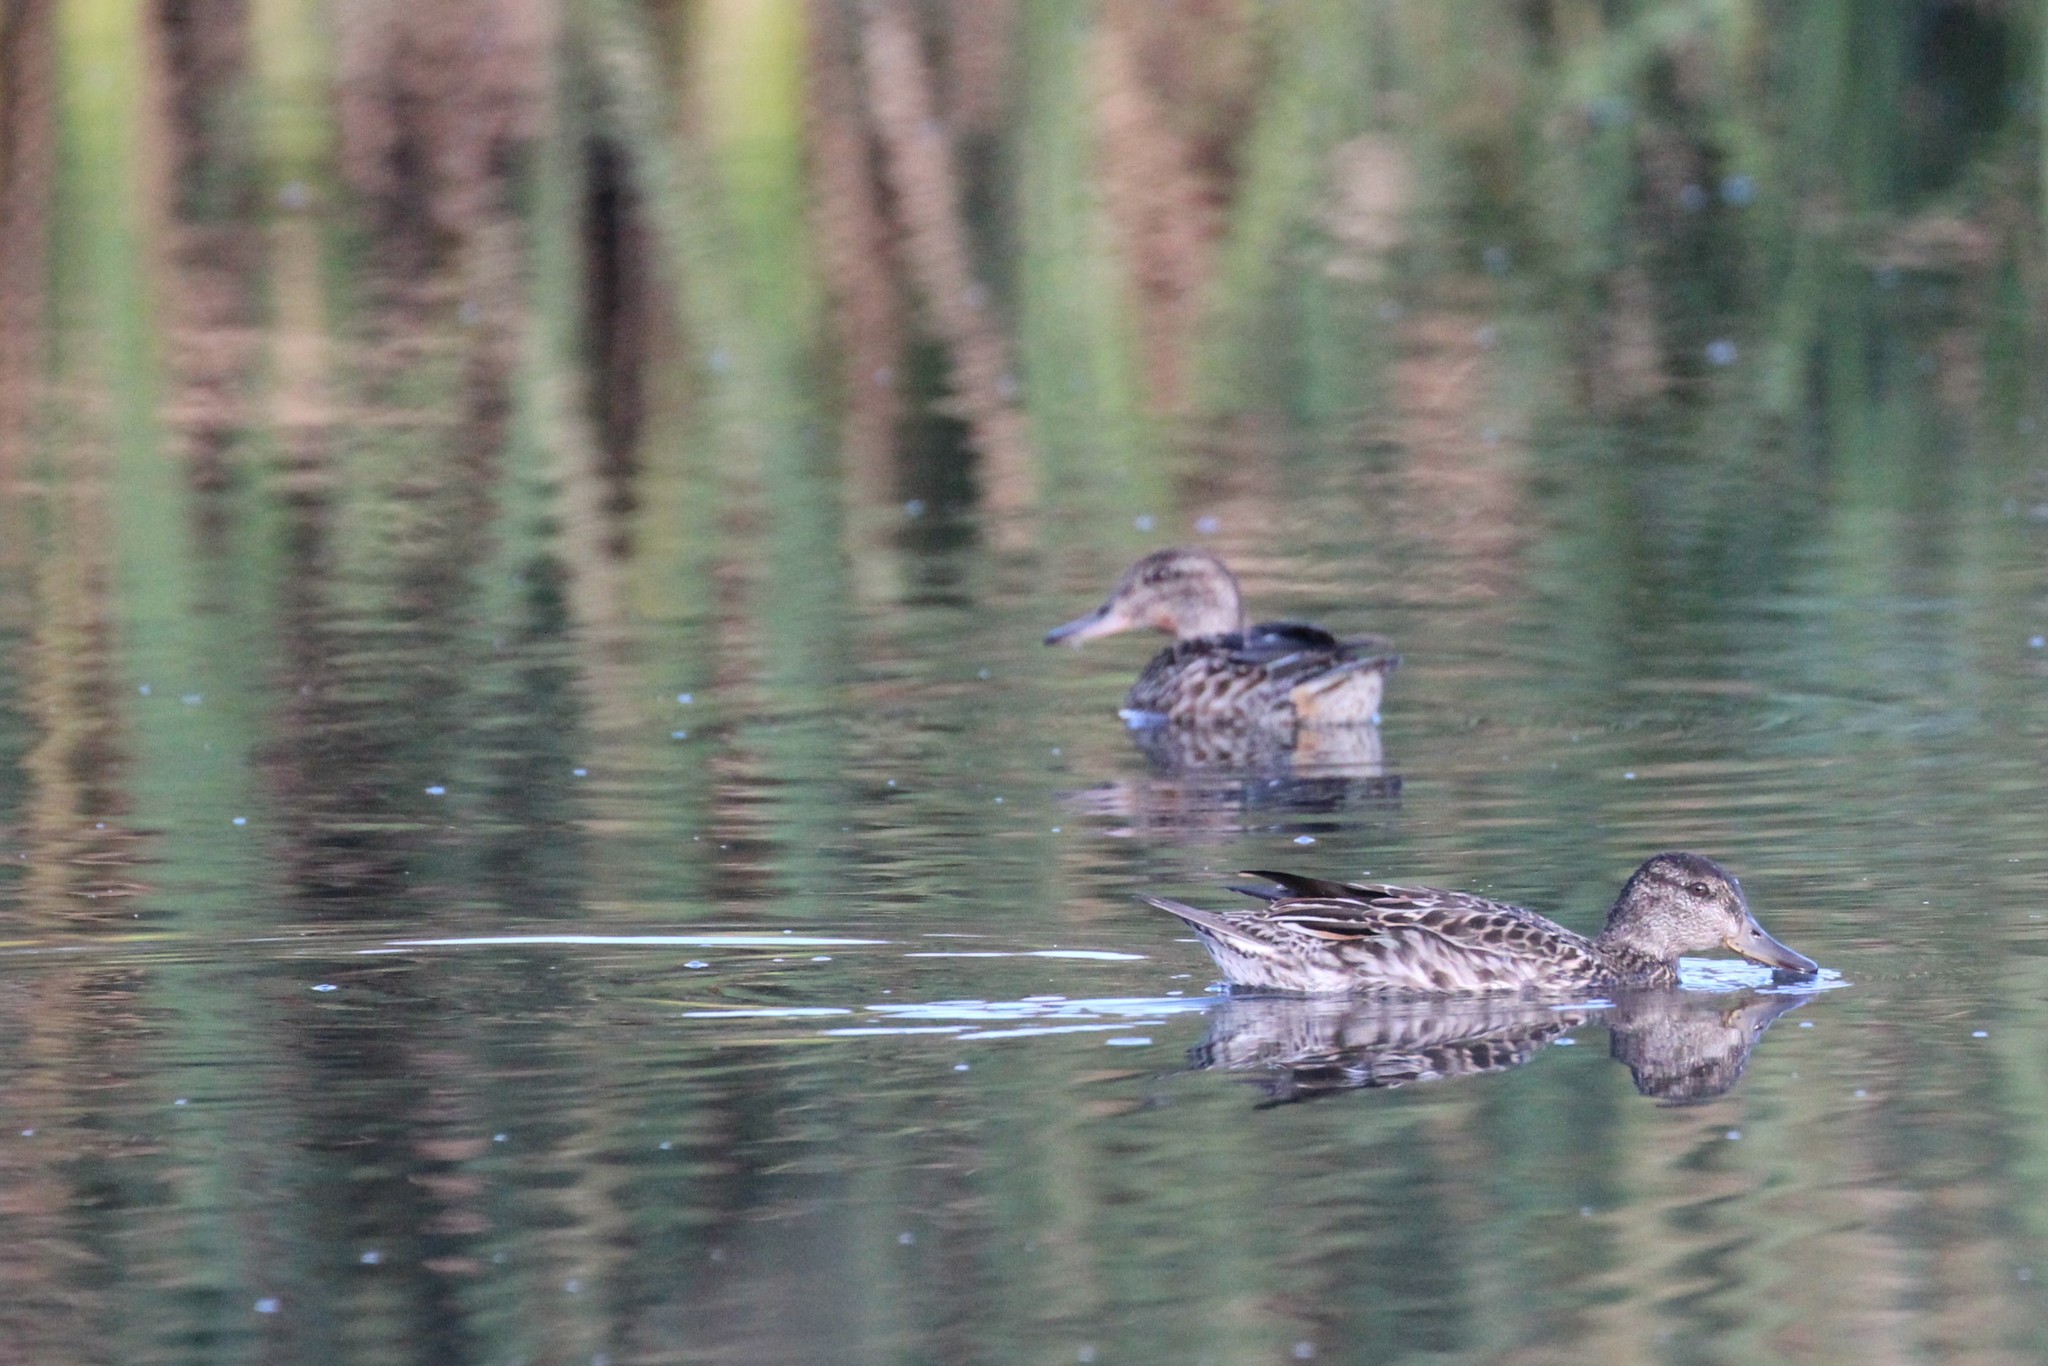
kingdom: Animalia
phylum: Chordata
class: Aves
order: Anseriformes
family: Anatidae
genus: Spatula
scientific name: Spatula discors
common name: Blue-winged teal
